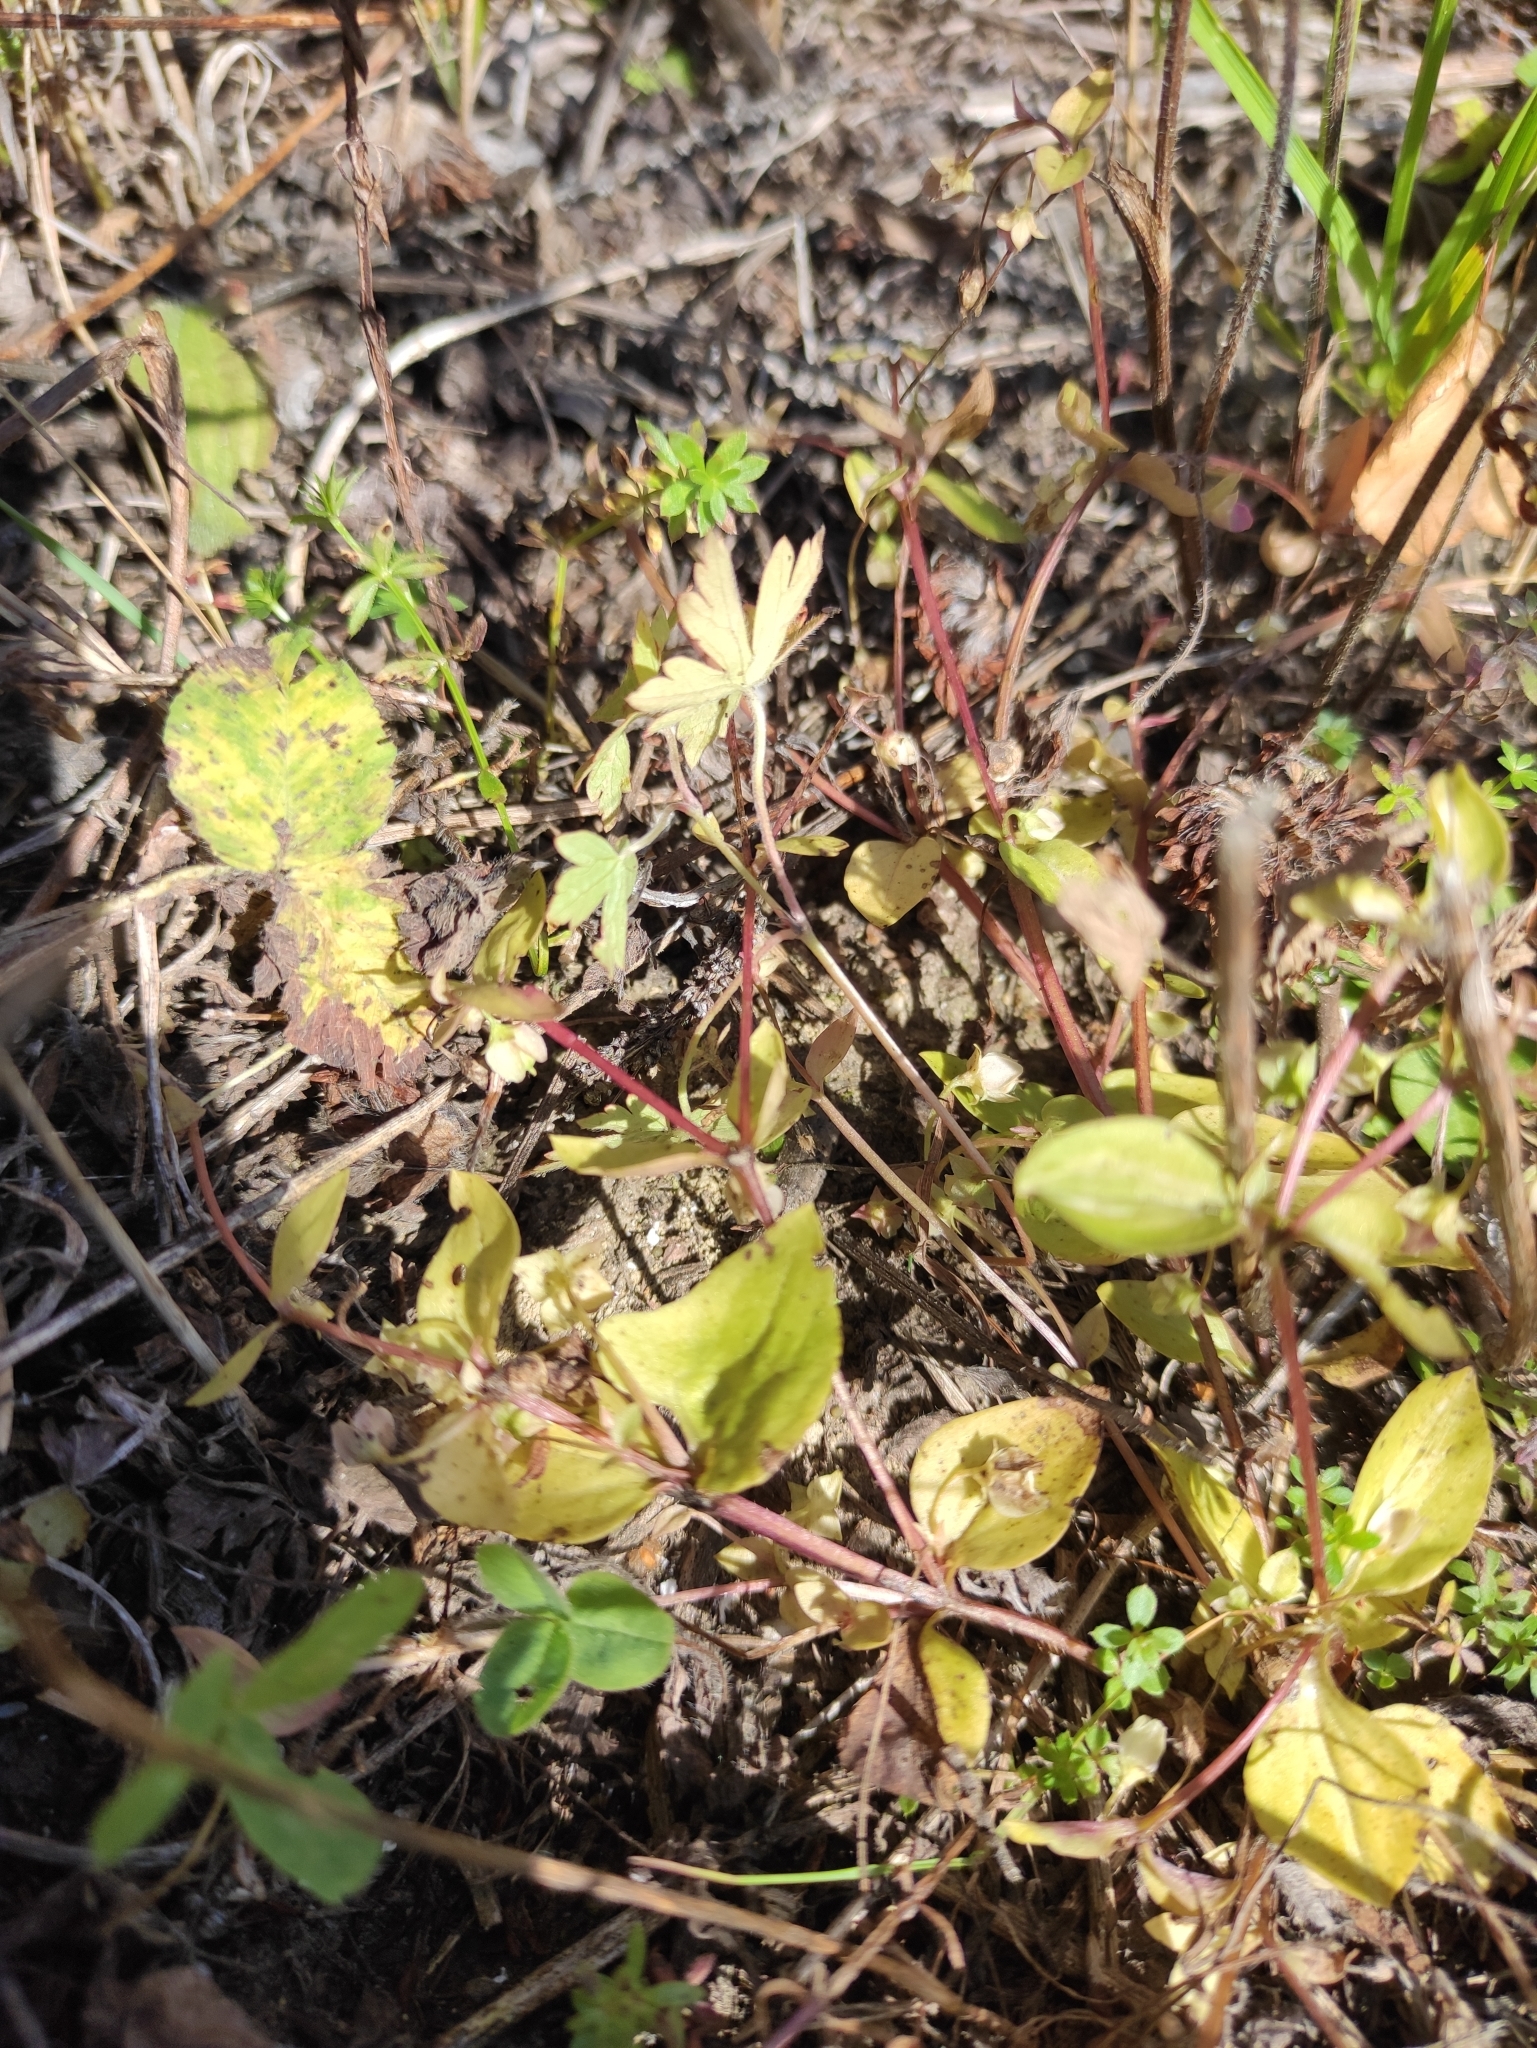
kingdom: Plantae
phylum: Tracheophyta
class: Magnoliopsida
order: Gentianales
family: Gentianaceae
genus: Swertia
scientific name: Swertia dichotoma
